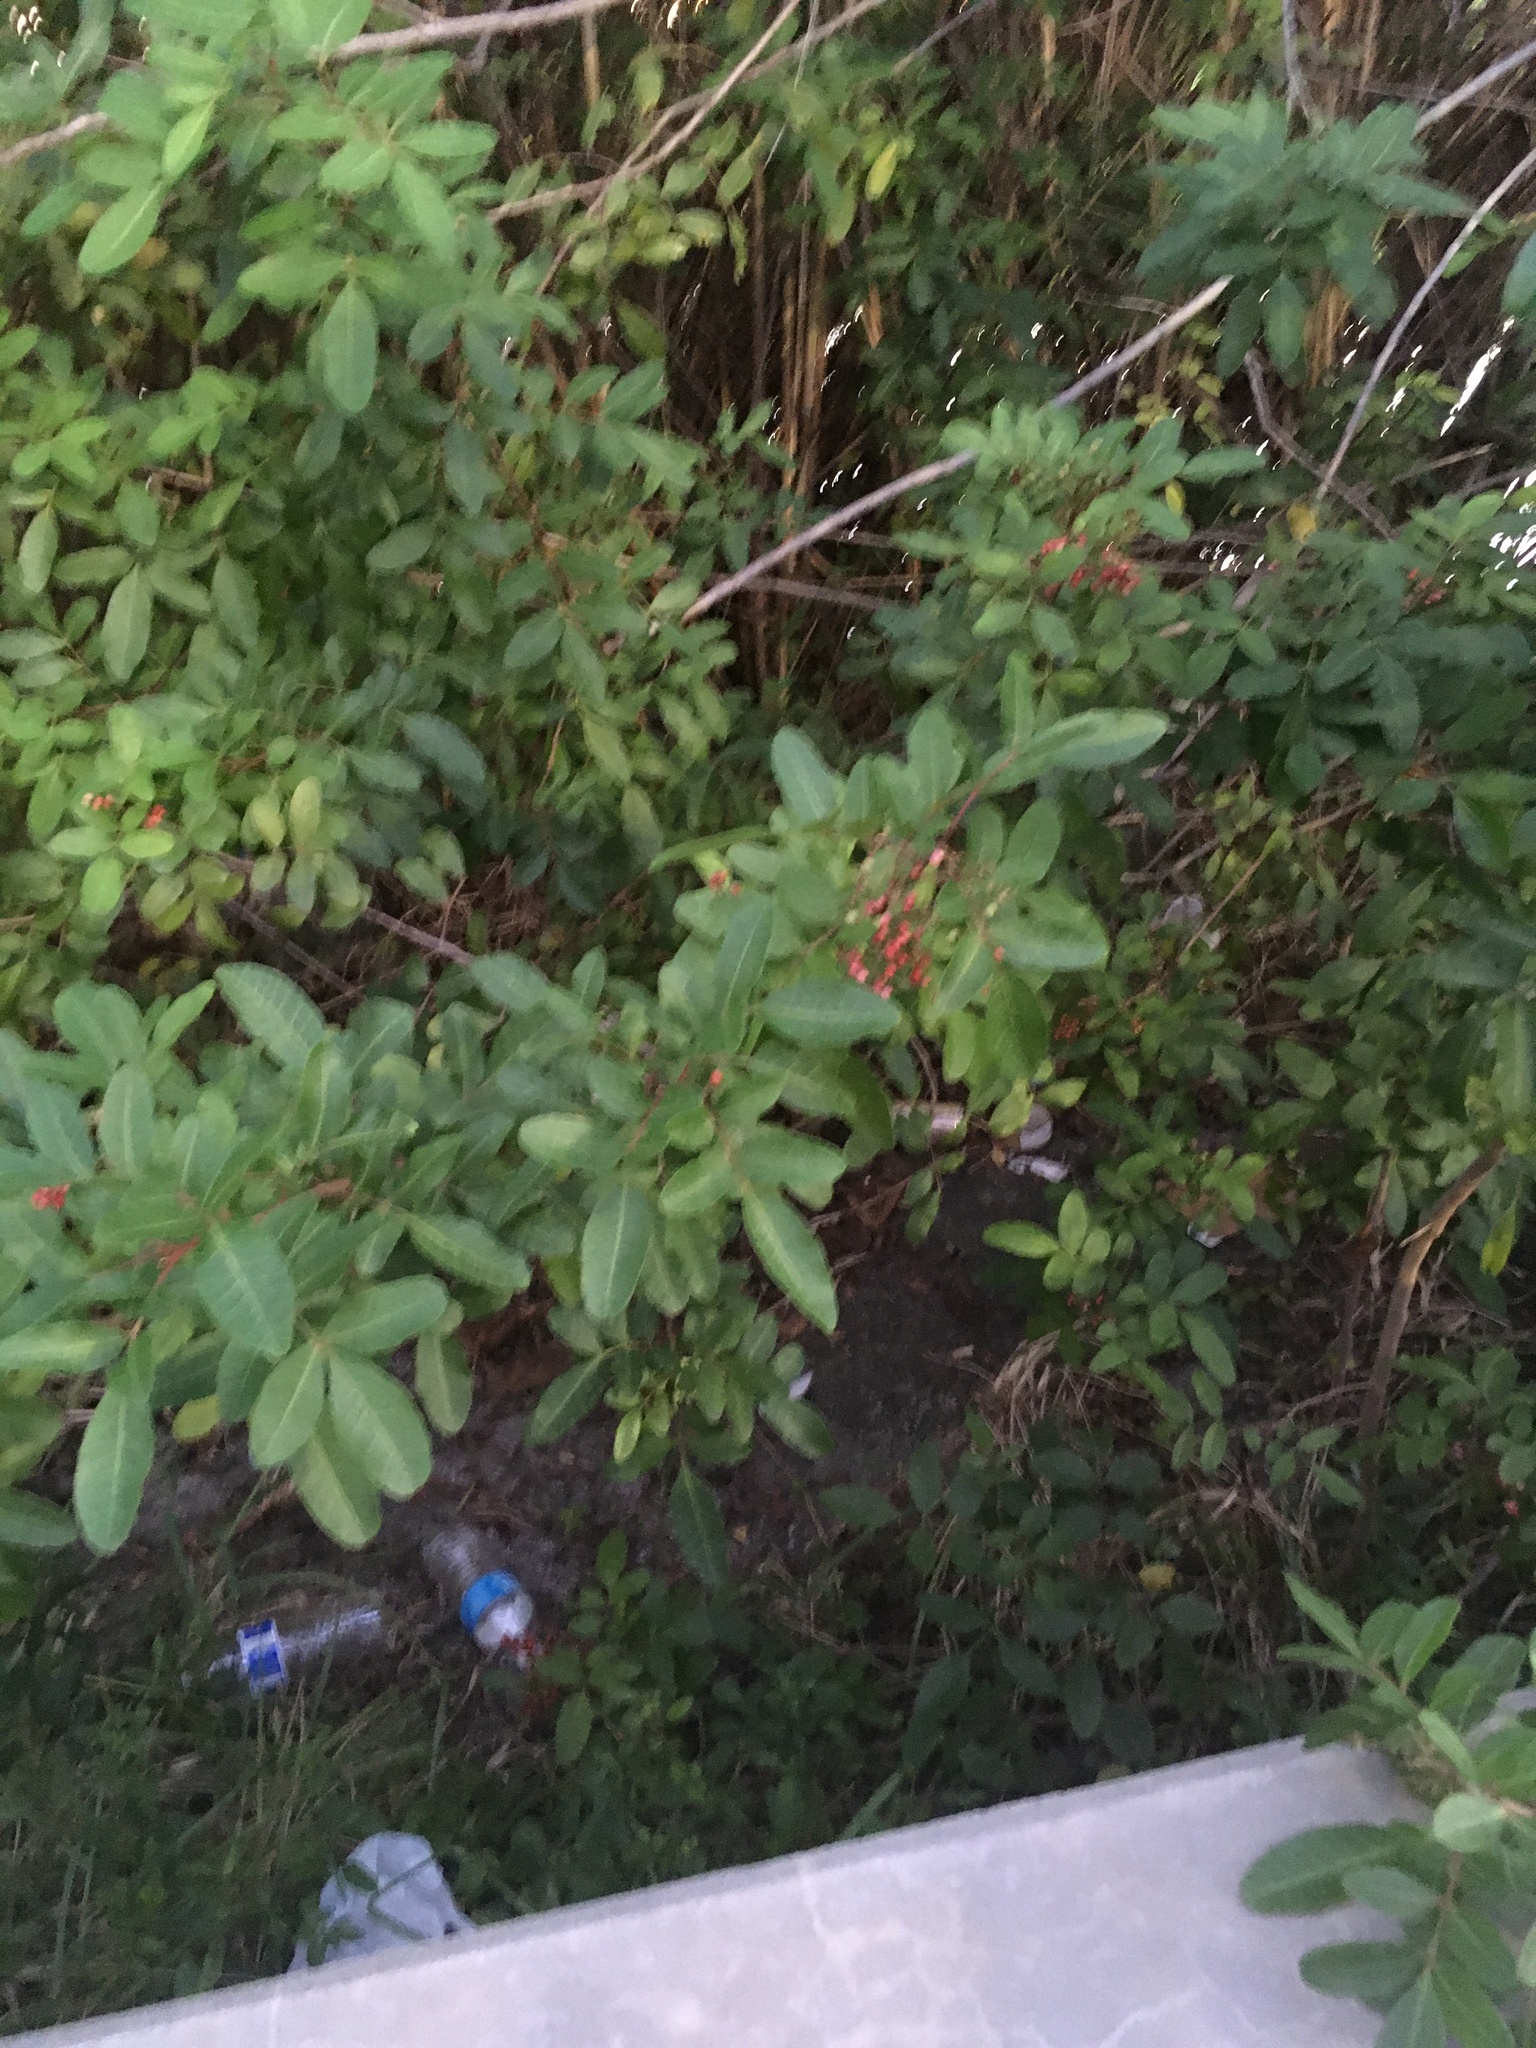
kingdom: Plantae
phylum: Tracheophyta
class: Magnoliopsida
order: Sapindales
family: Anacardiaceae
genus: Schinus
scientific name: Schinus terebinthifolia
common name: Brazilian peppertree
